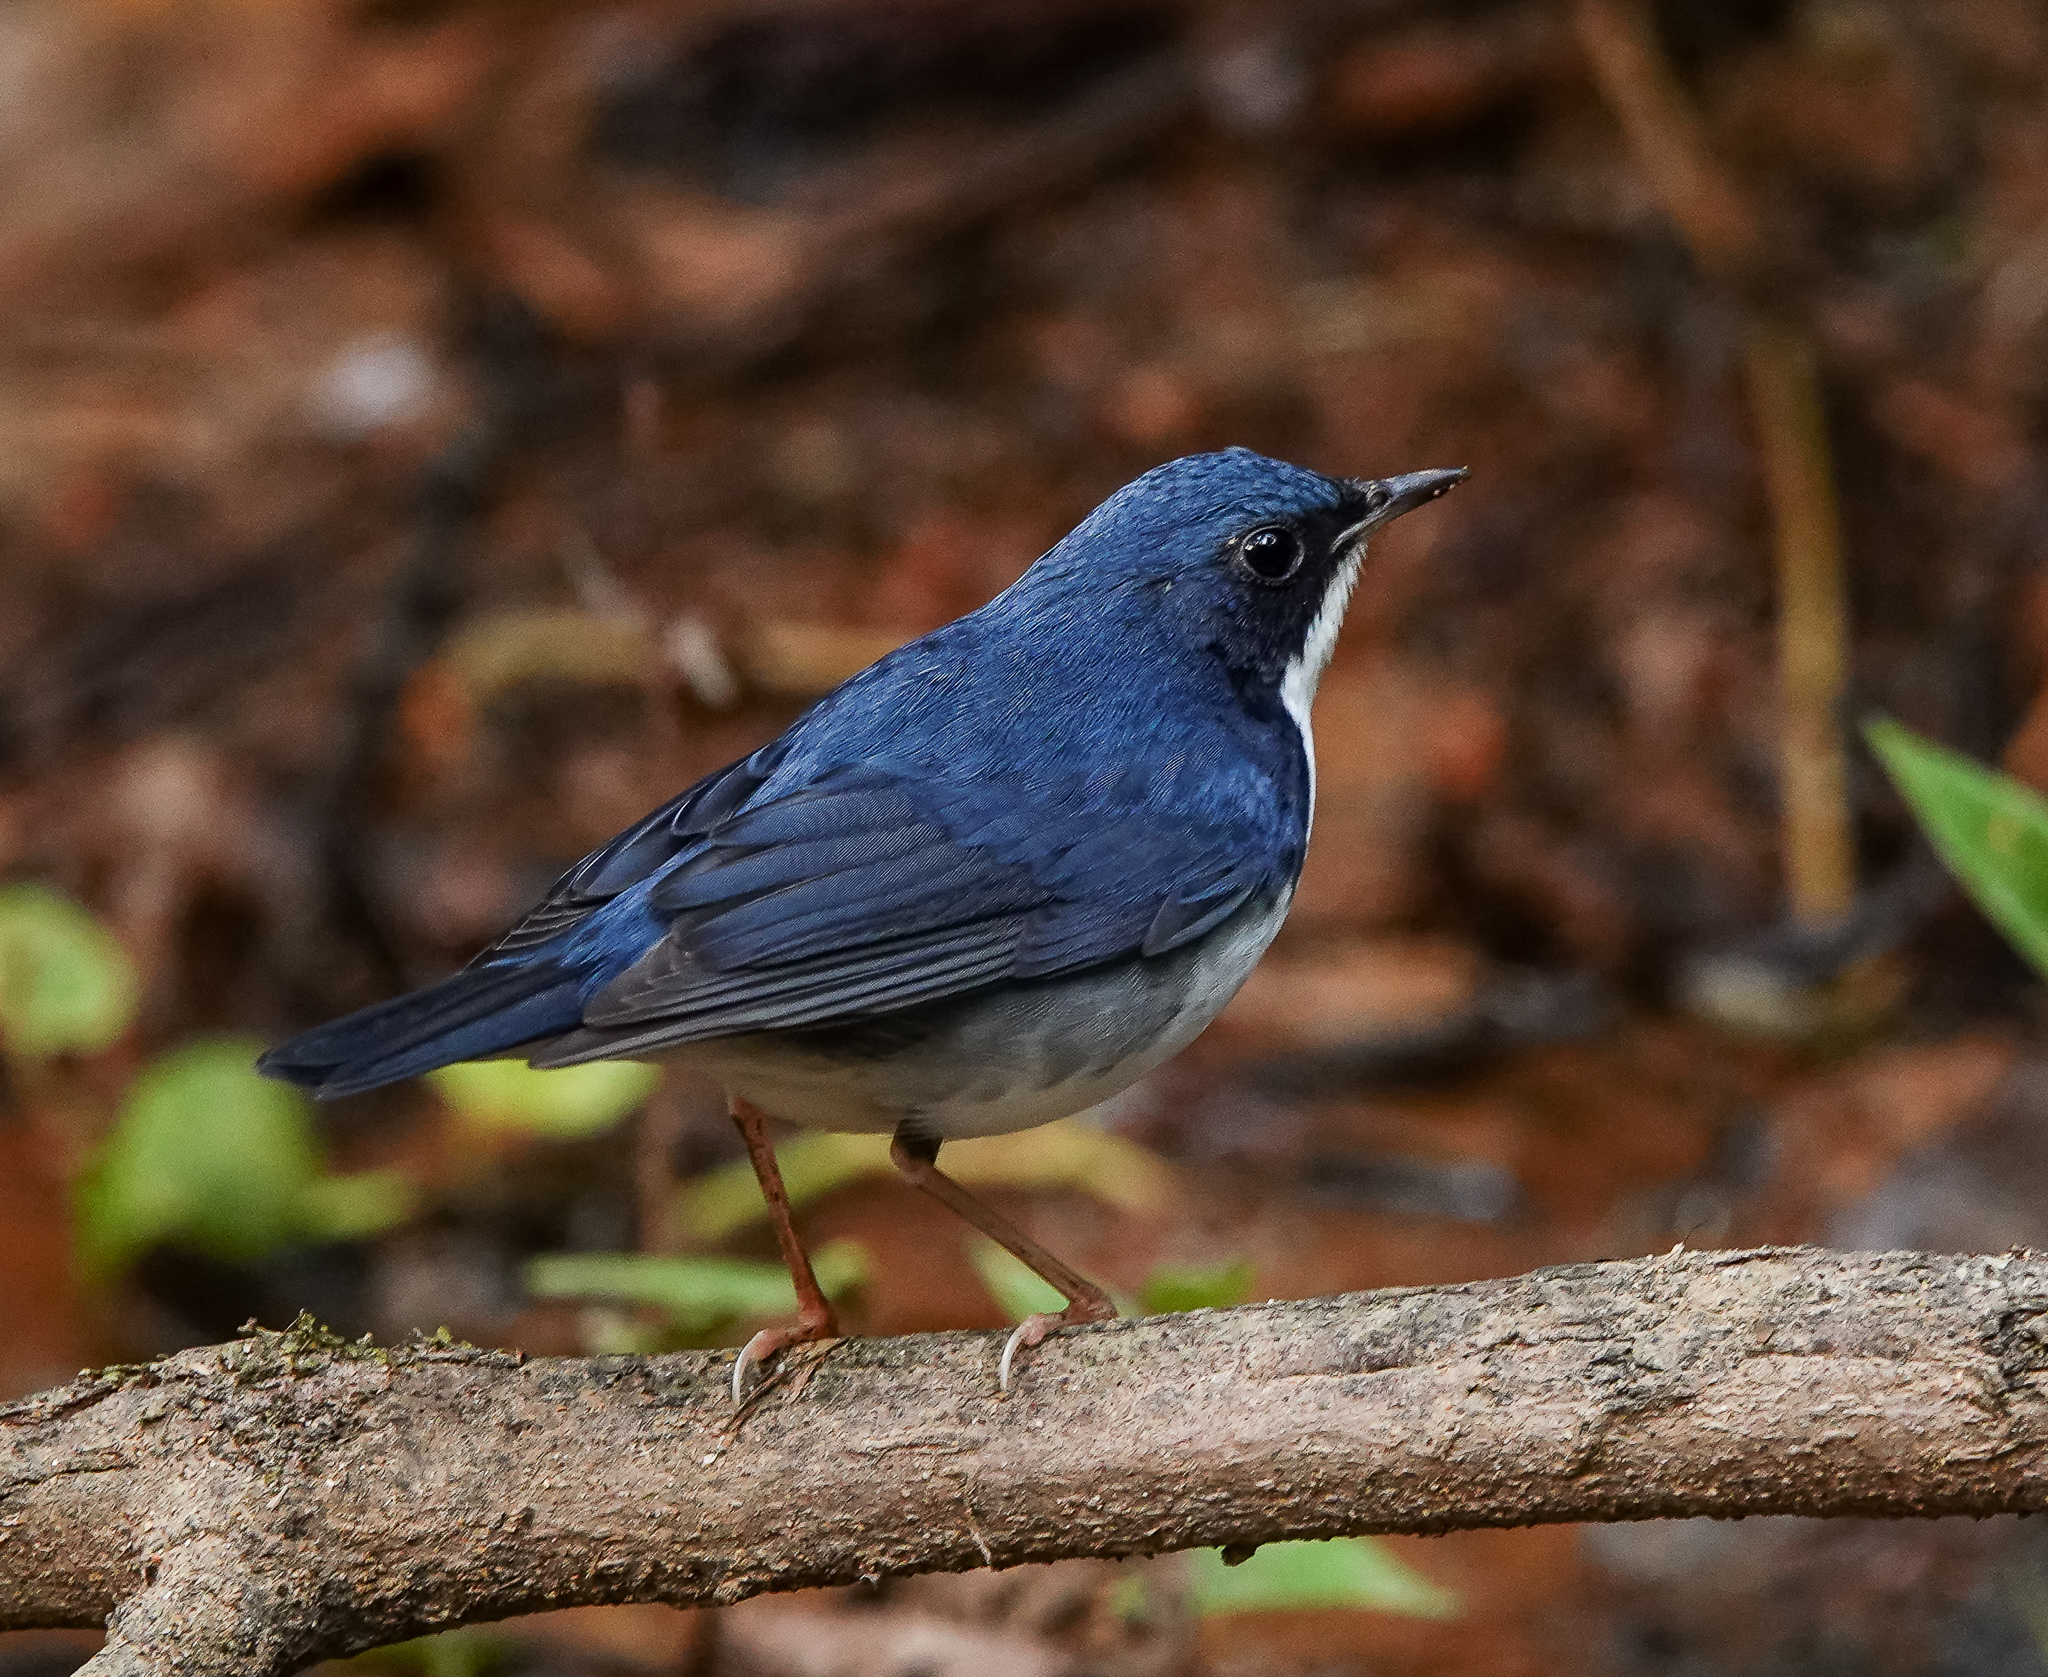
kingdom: Animalia
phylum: Chordata
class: Aves
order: Passeriformes
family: Muscicapidae
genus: Luscinia
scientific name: Luscinia cyane
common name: Siberian blue robin
